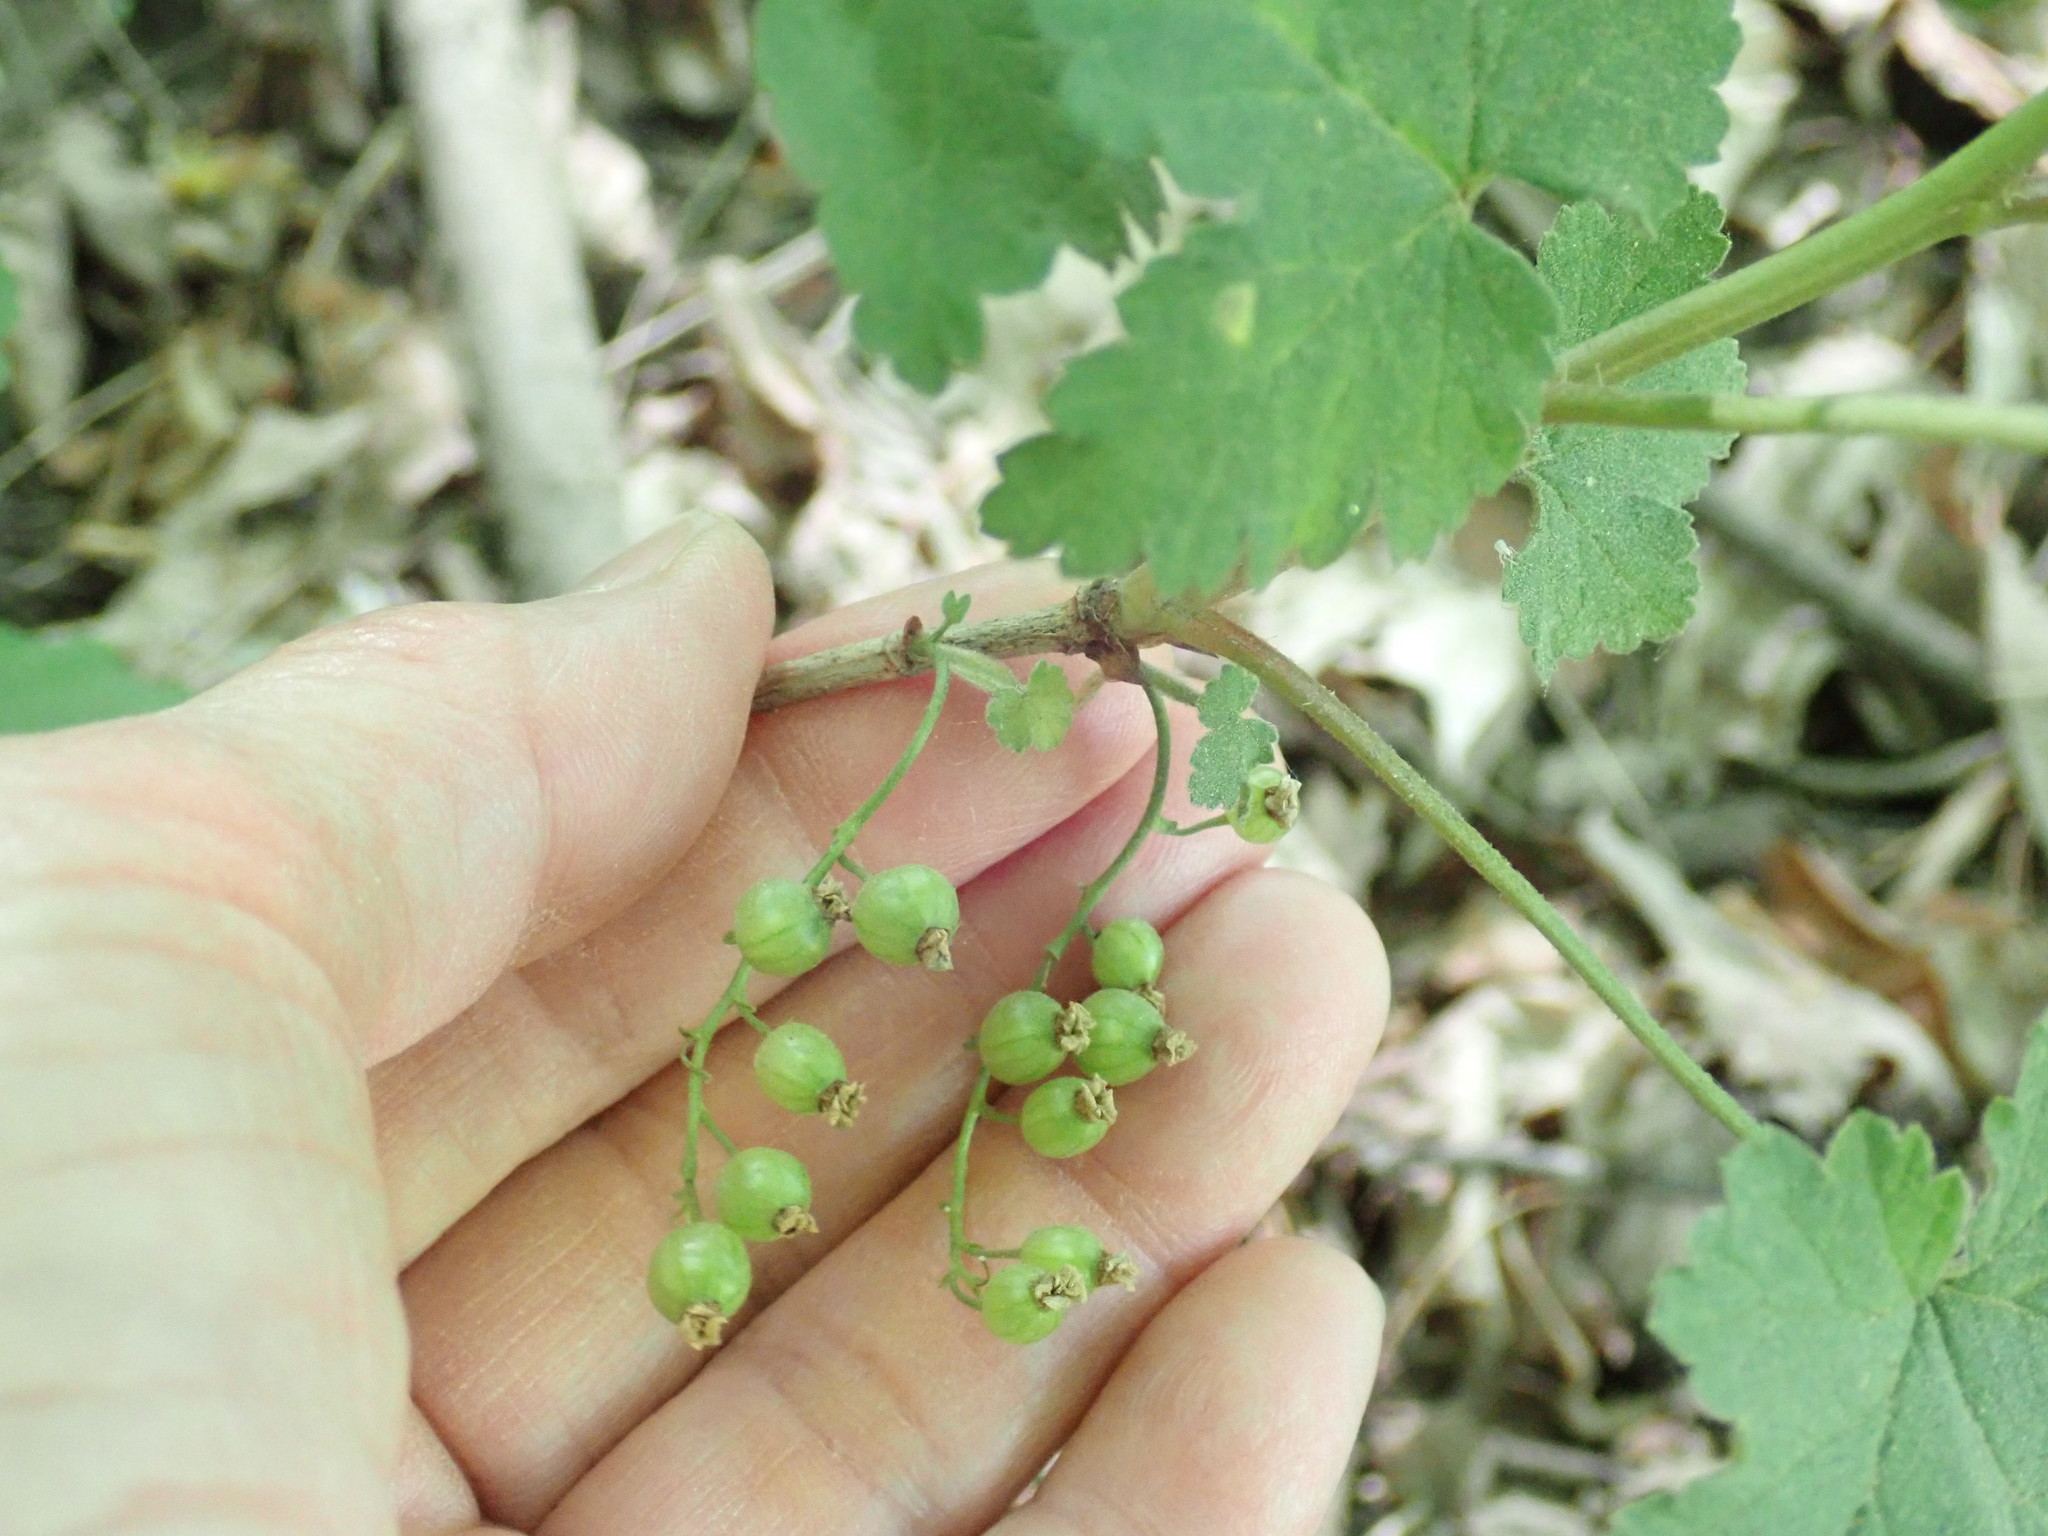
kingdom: Plantae
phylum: Tracheophyta
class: Magnoliopsida
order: Saxifragales
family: Grossulariaceae
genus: Ribes
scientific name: Ribes rubrum
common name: Red currant
